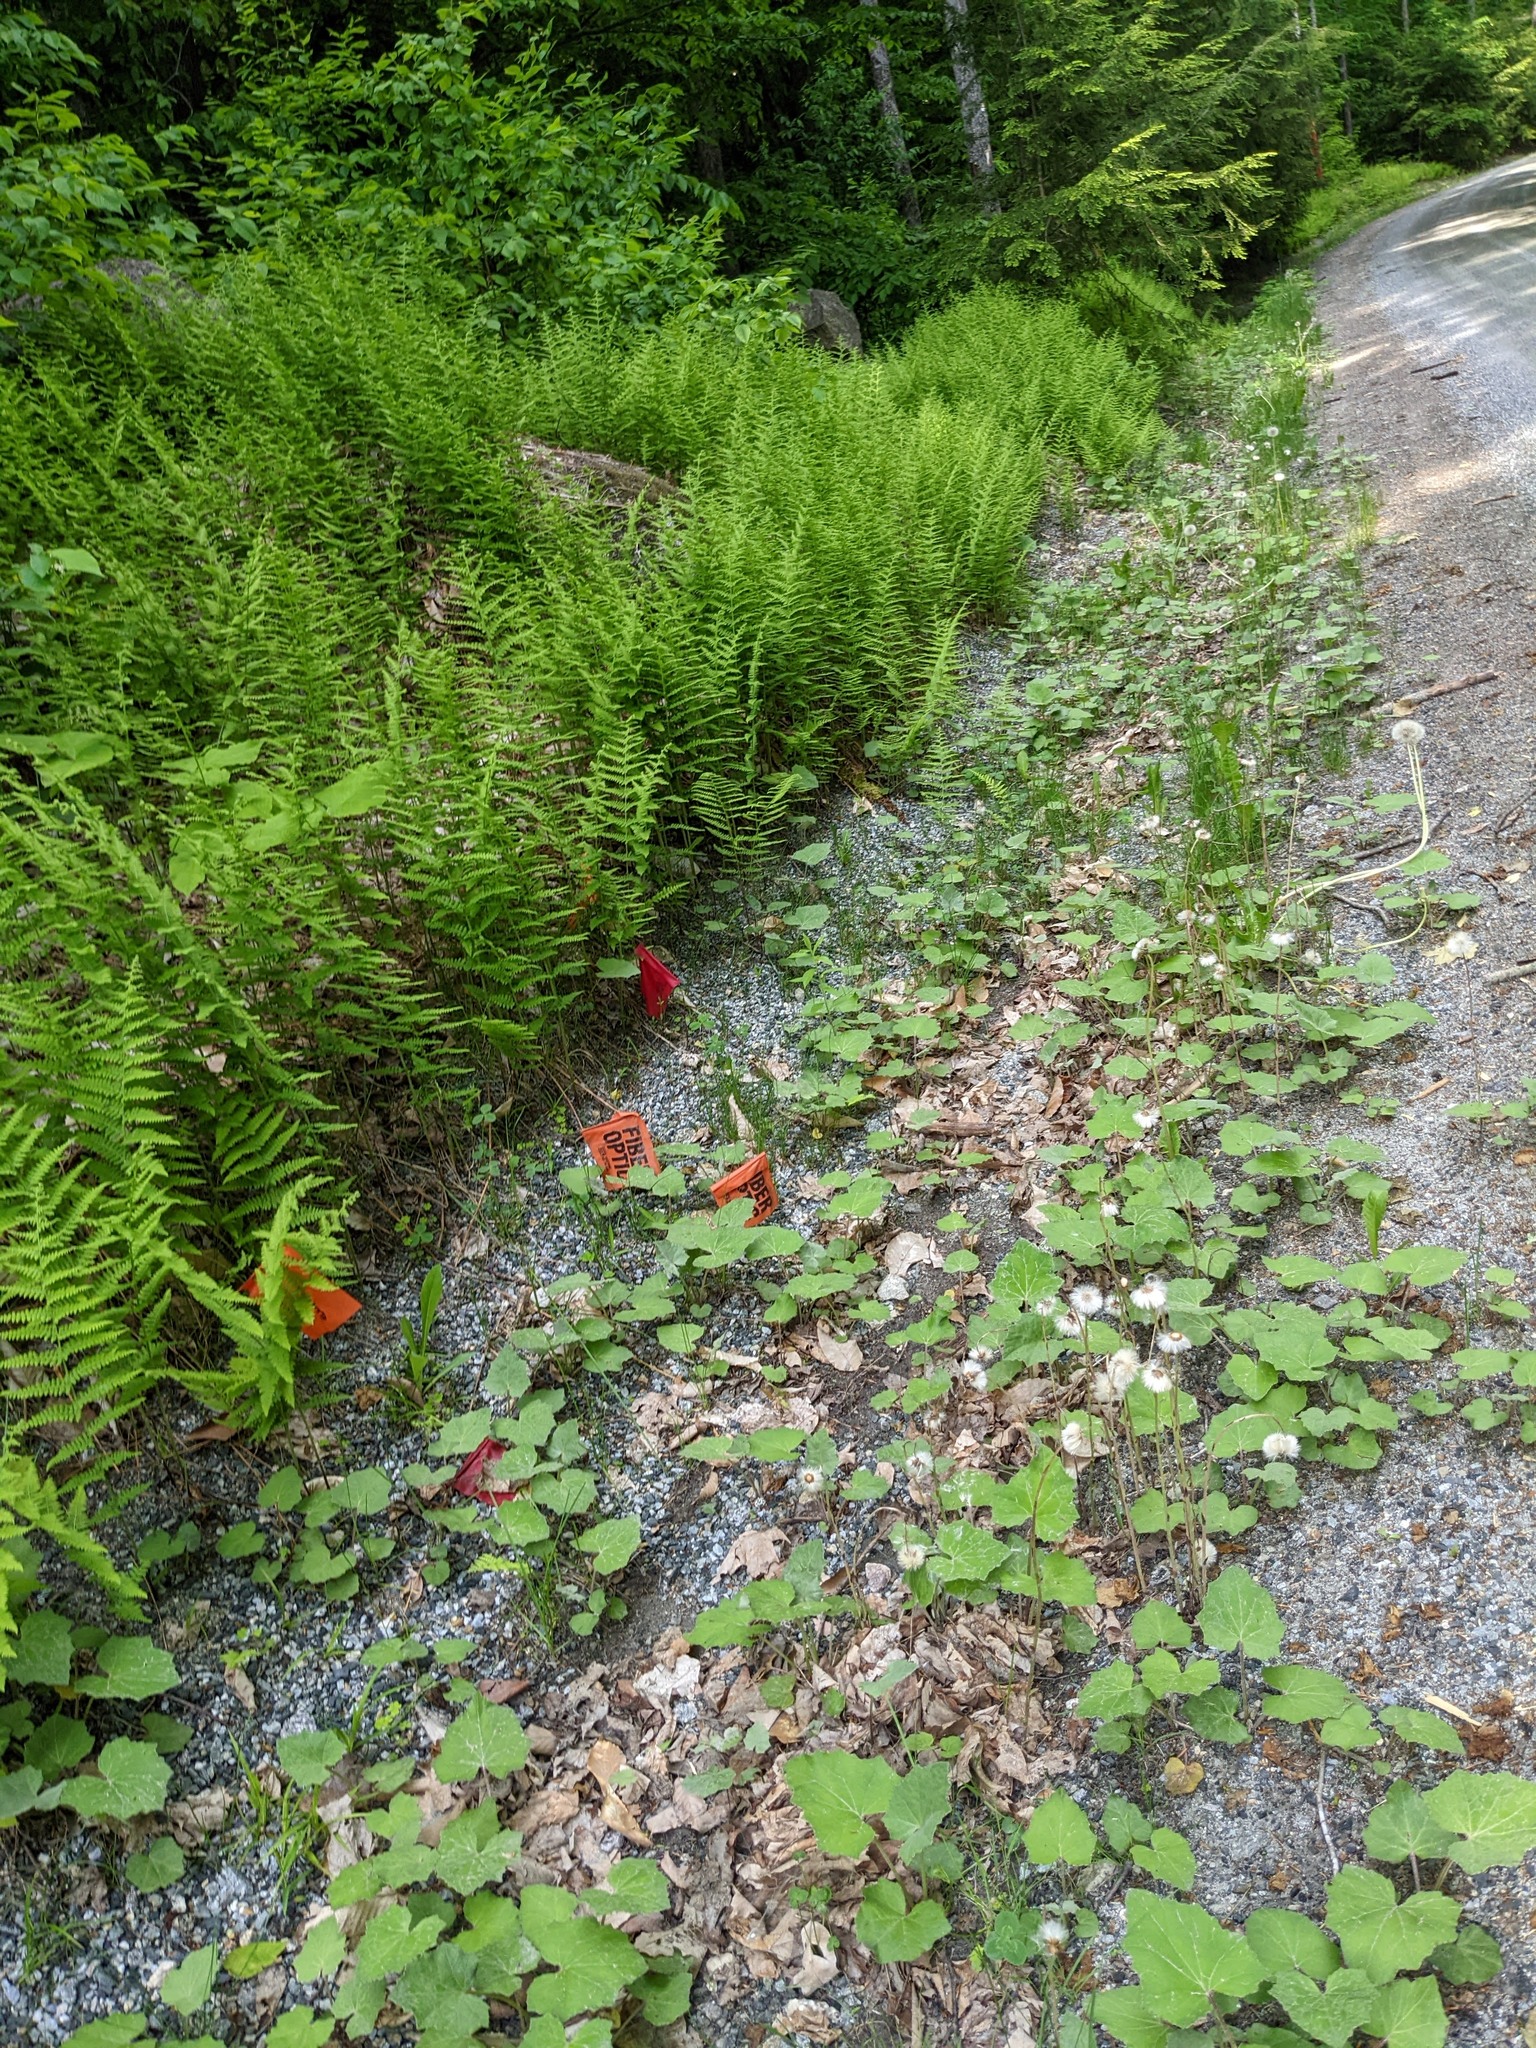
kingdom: Plantae
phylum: Tracheophyta
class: Magnoliopsida
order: Asterales
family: Asteraceae
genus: Tussilago
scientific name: Tussilago farfara
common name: Coltsfoot
